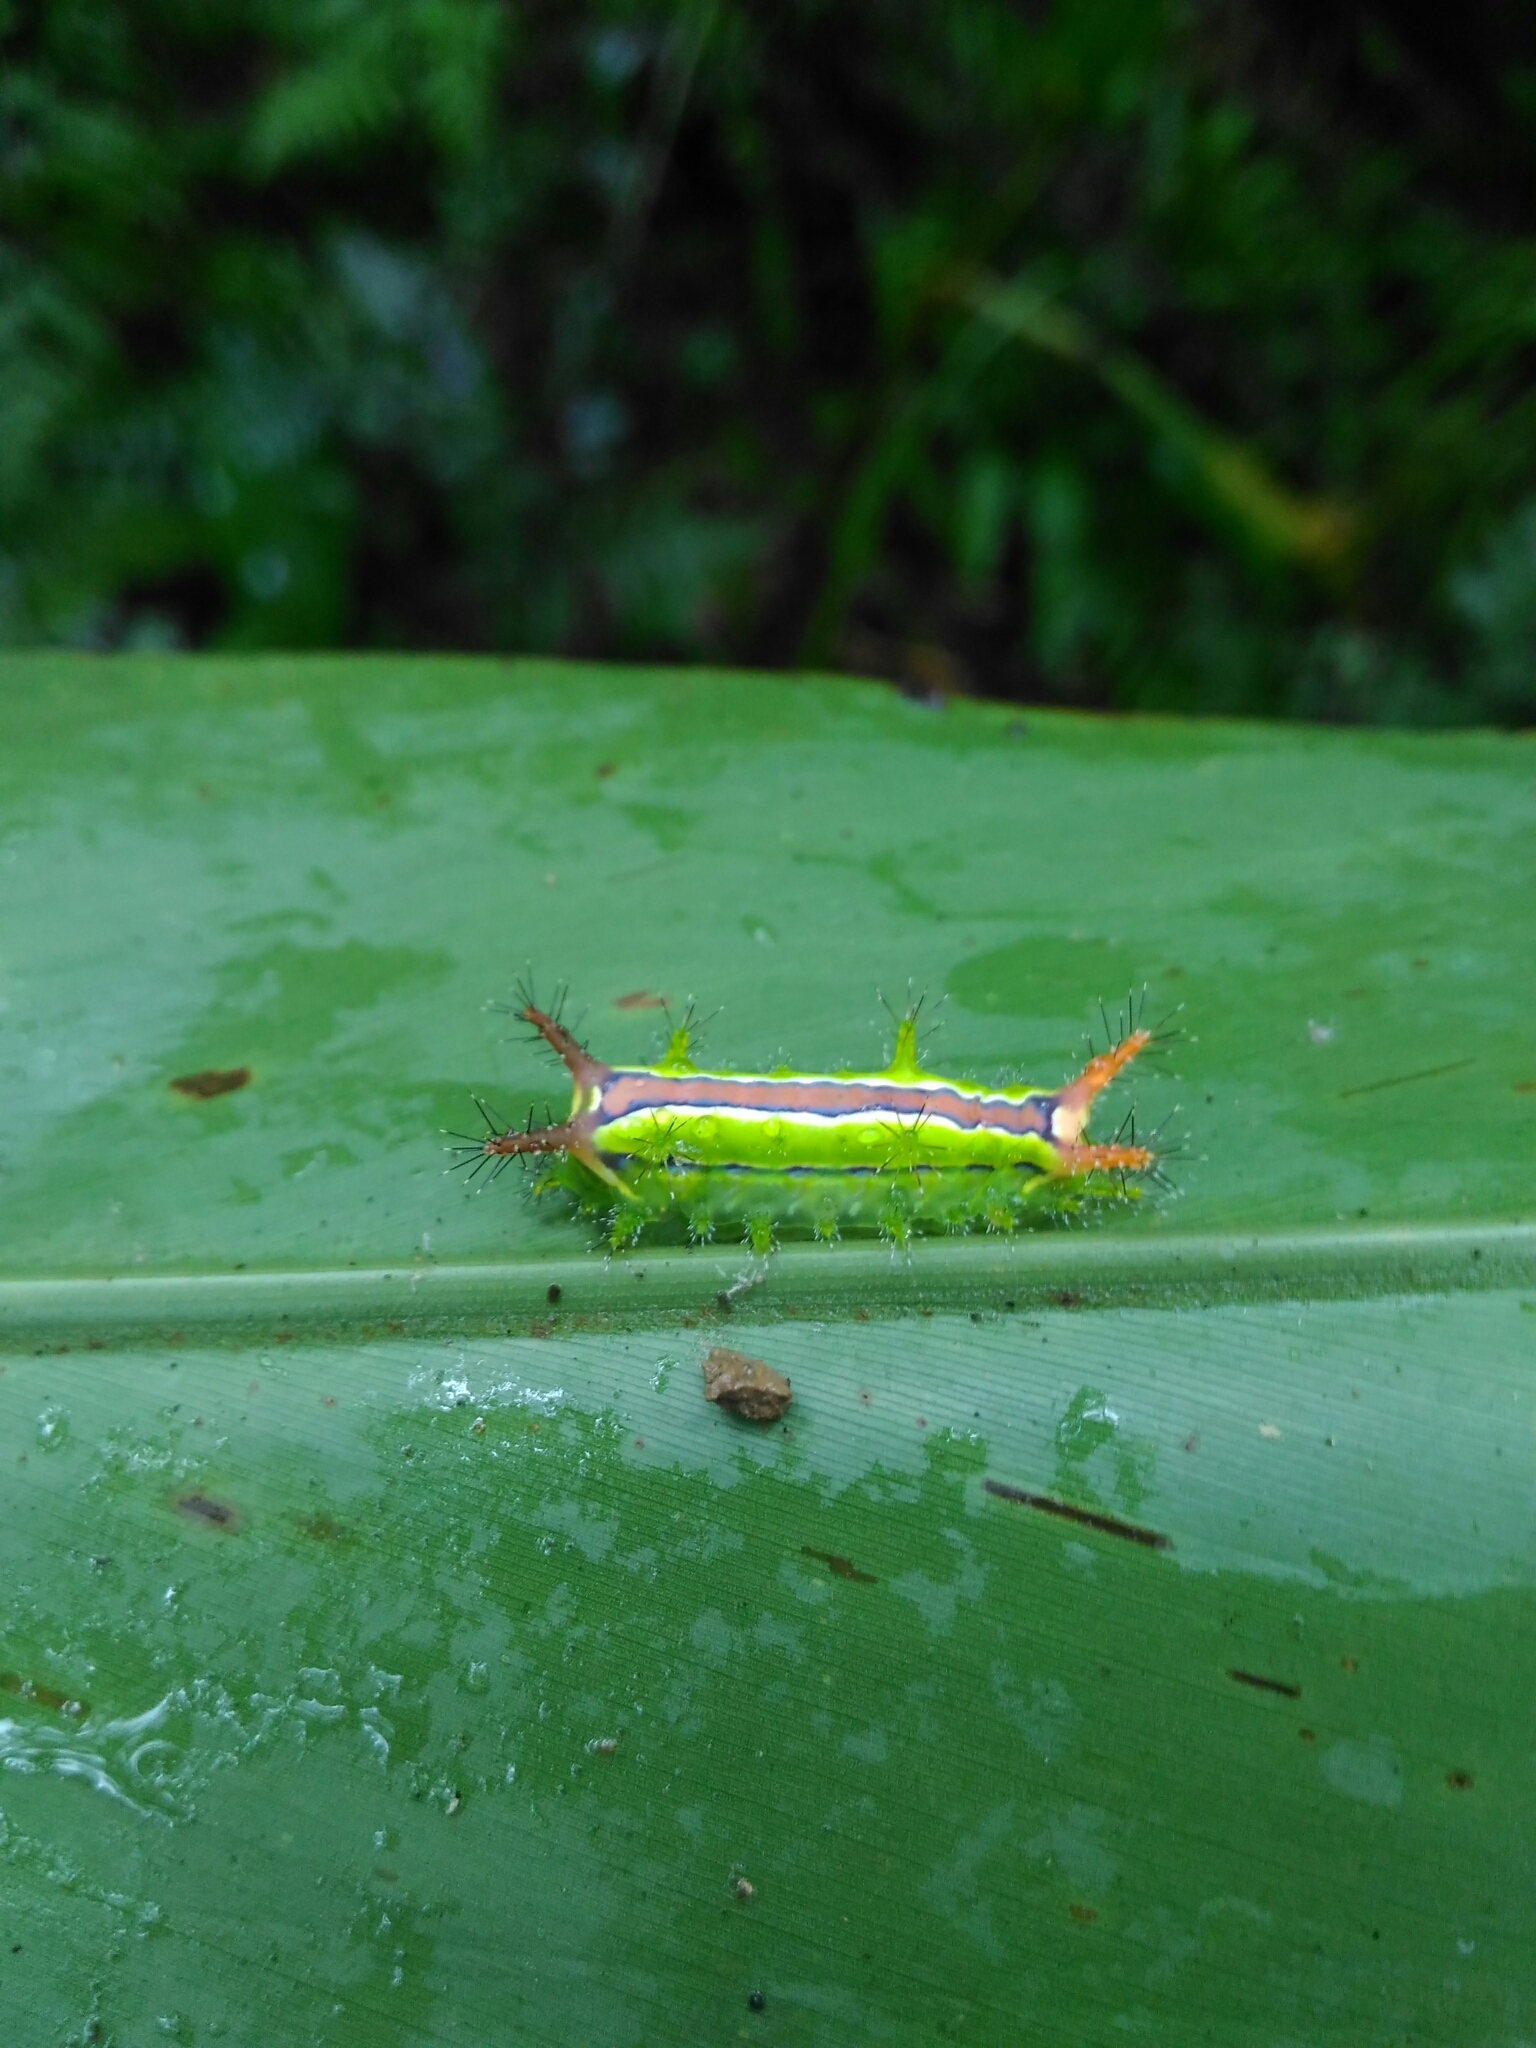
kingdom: Animalia
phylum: Arthropoda
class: Insecta
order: Lepidoptera
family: Limacodidae
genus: Birthamula
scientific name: Birthamula rufa
